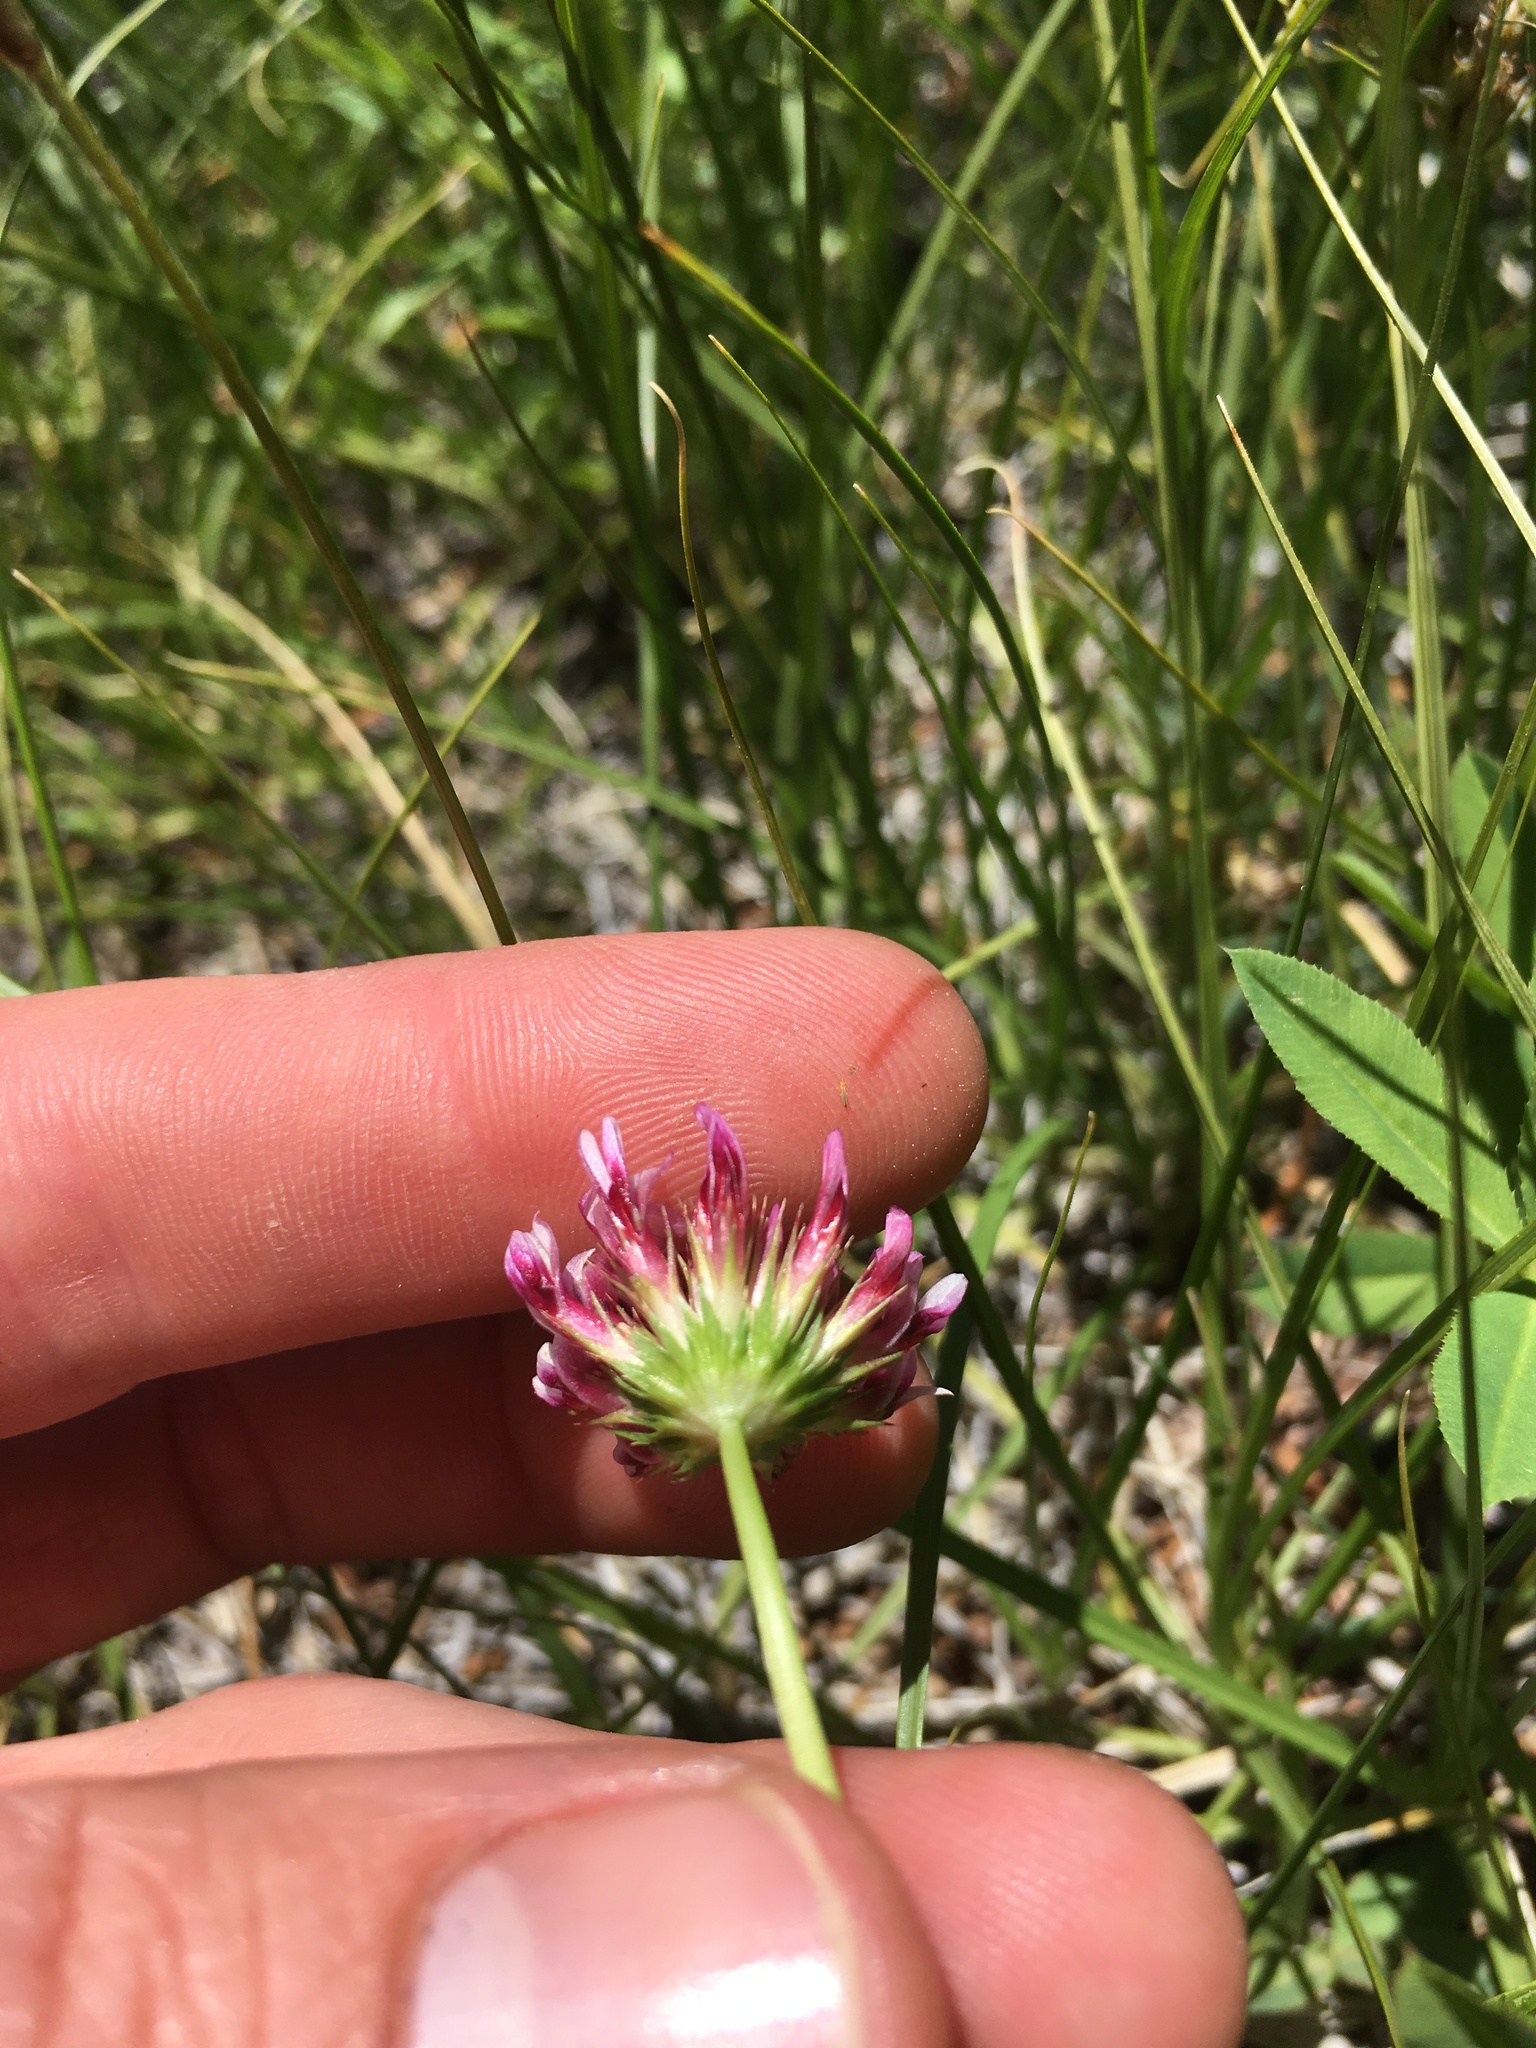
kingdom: Plantae
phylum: Tracheophyta
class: Magnoliopsida
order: Fabales
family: Fabaceae
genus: Trifolium
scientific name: Trifolium wormskioldii
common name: Springbank clover
